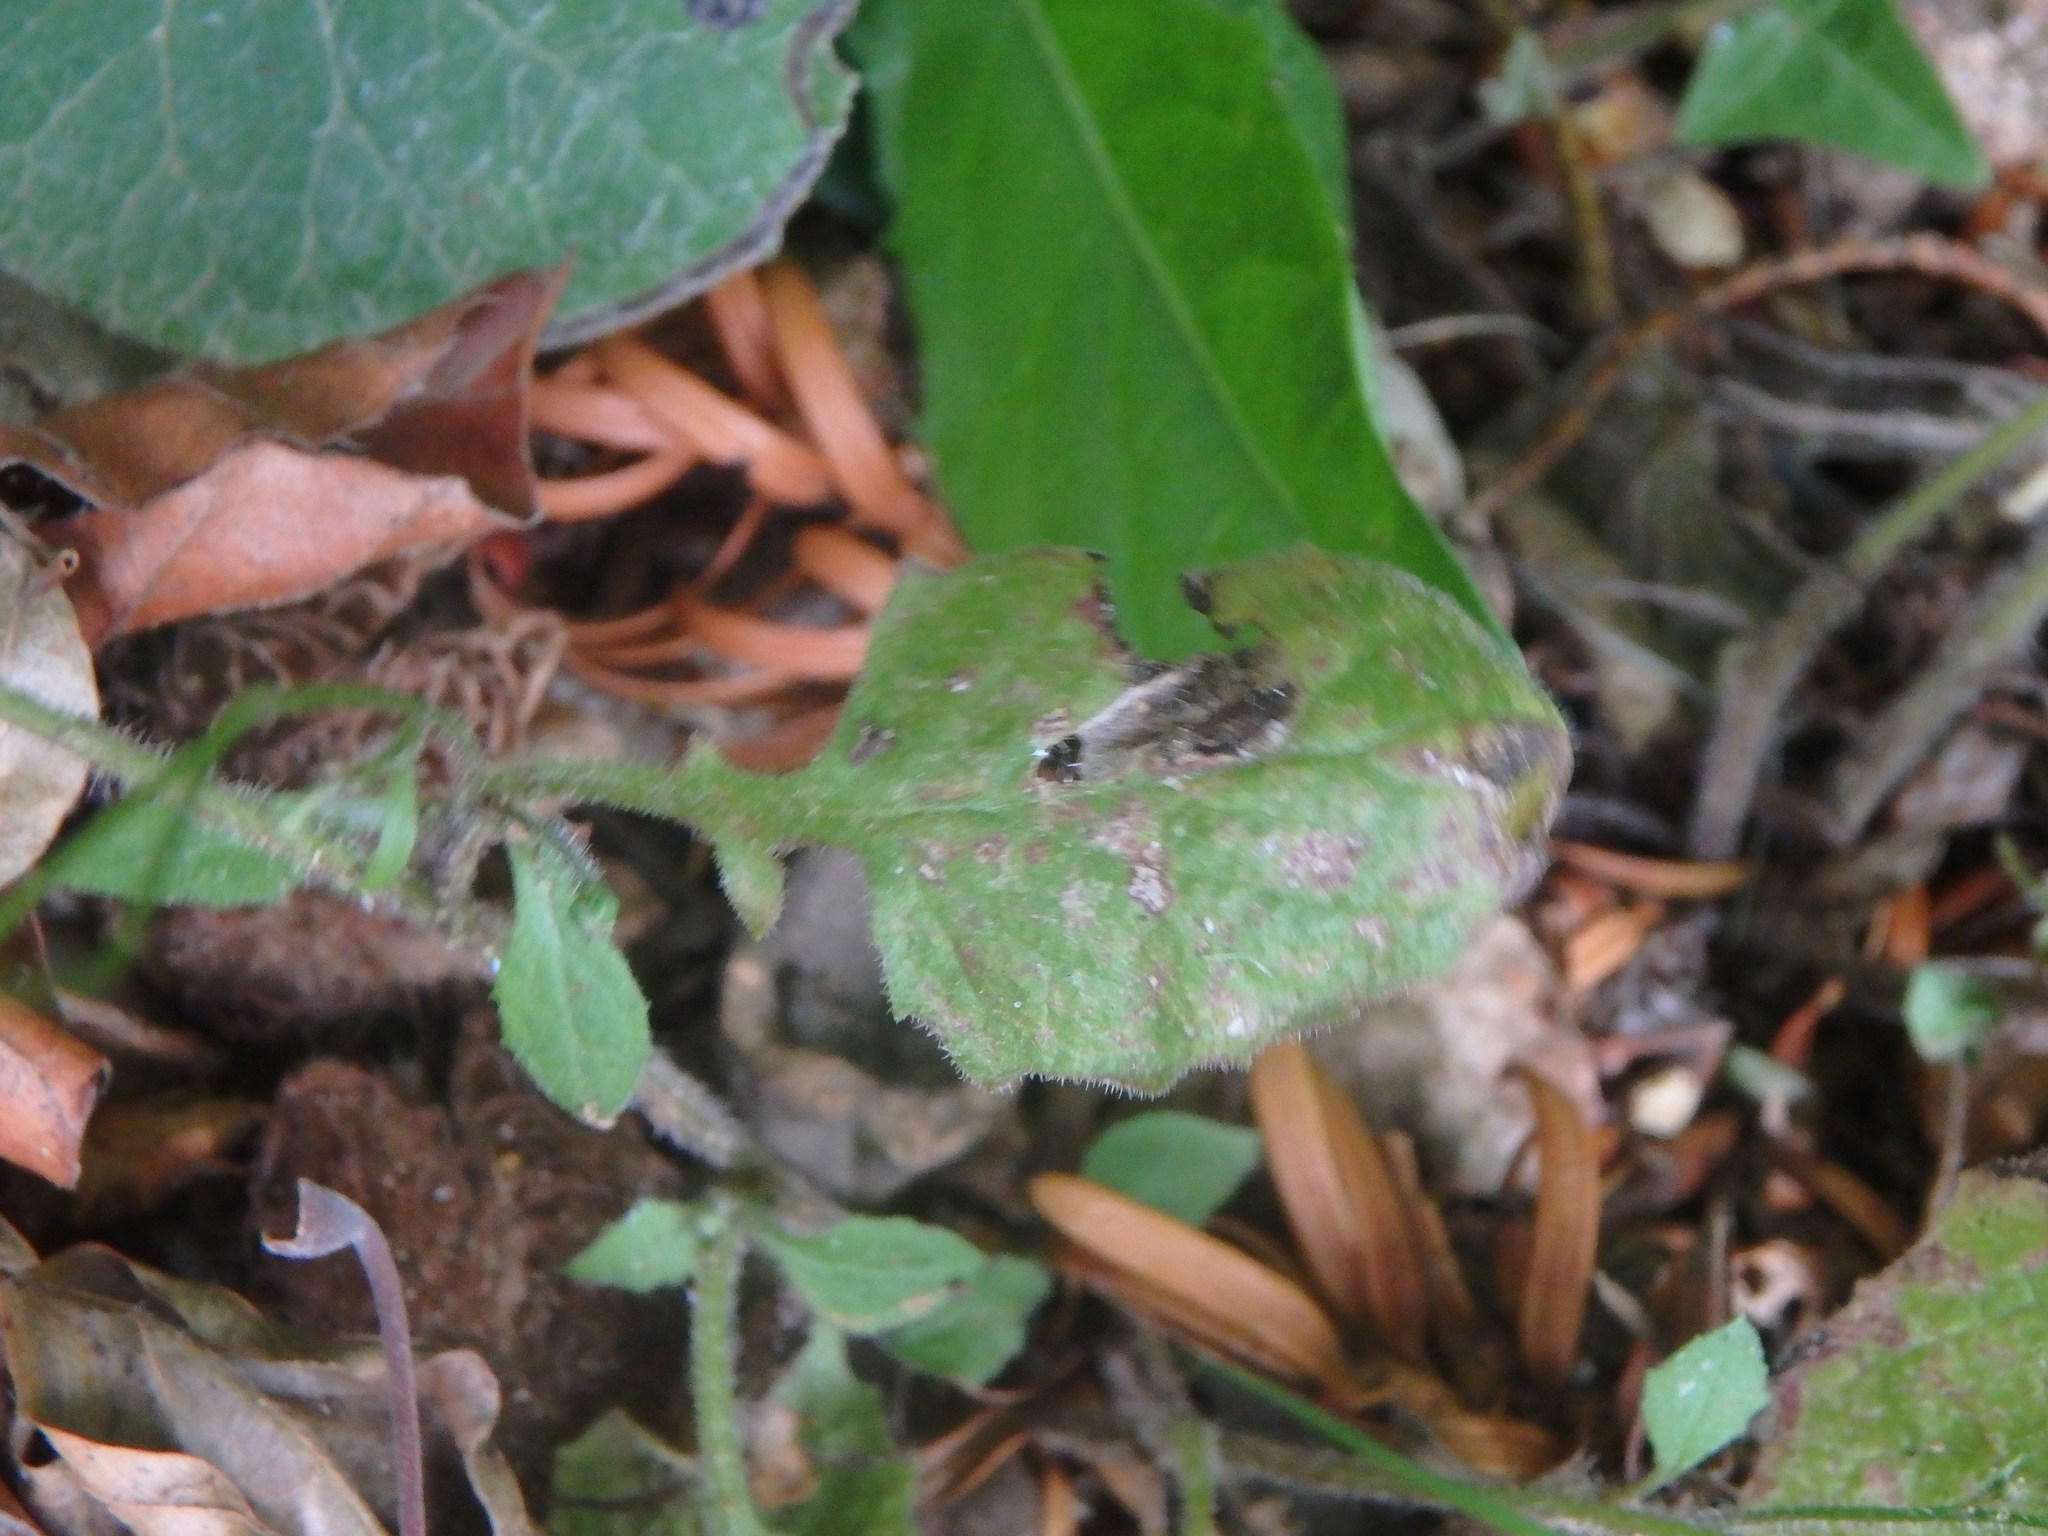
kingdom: Plantae
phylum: Tracheophyta
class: Magnoliopsida
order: Asterales
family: Asteraceae
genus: Lapsana
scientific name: Lapsana communis
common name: Nipplewort
